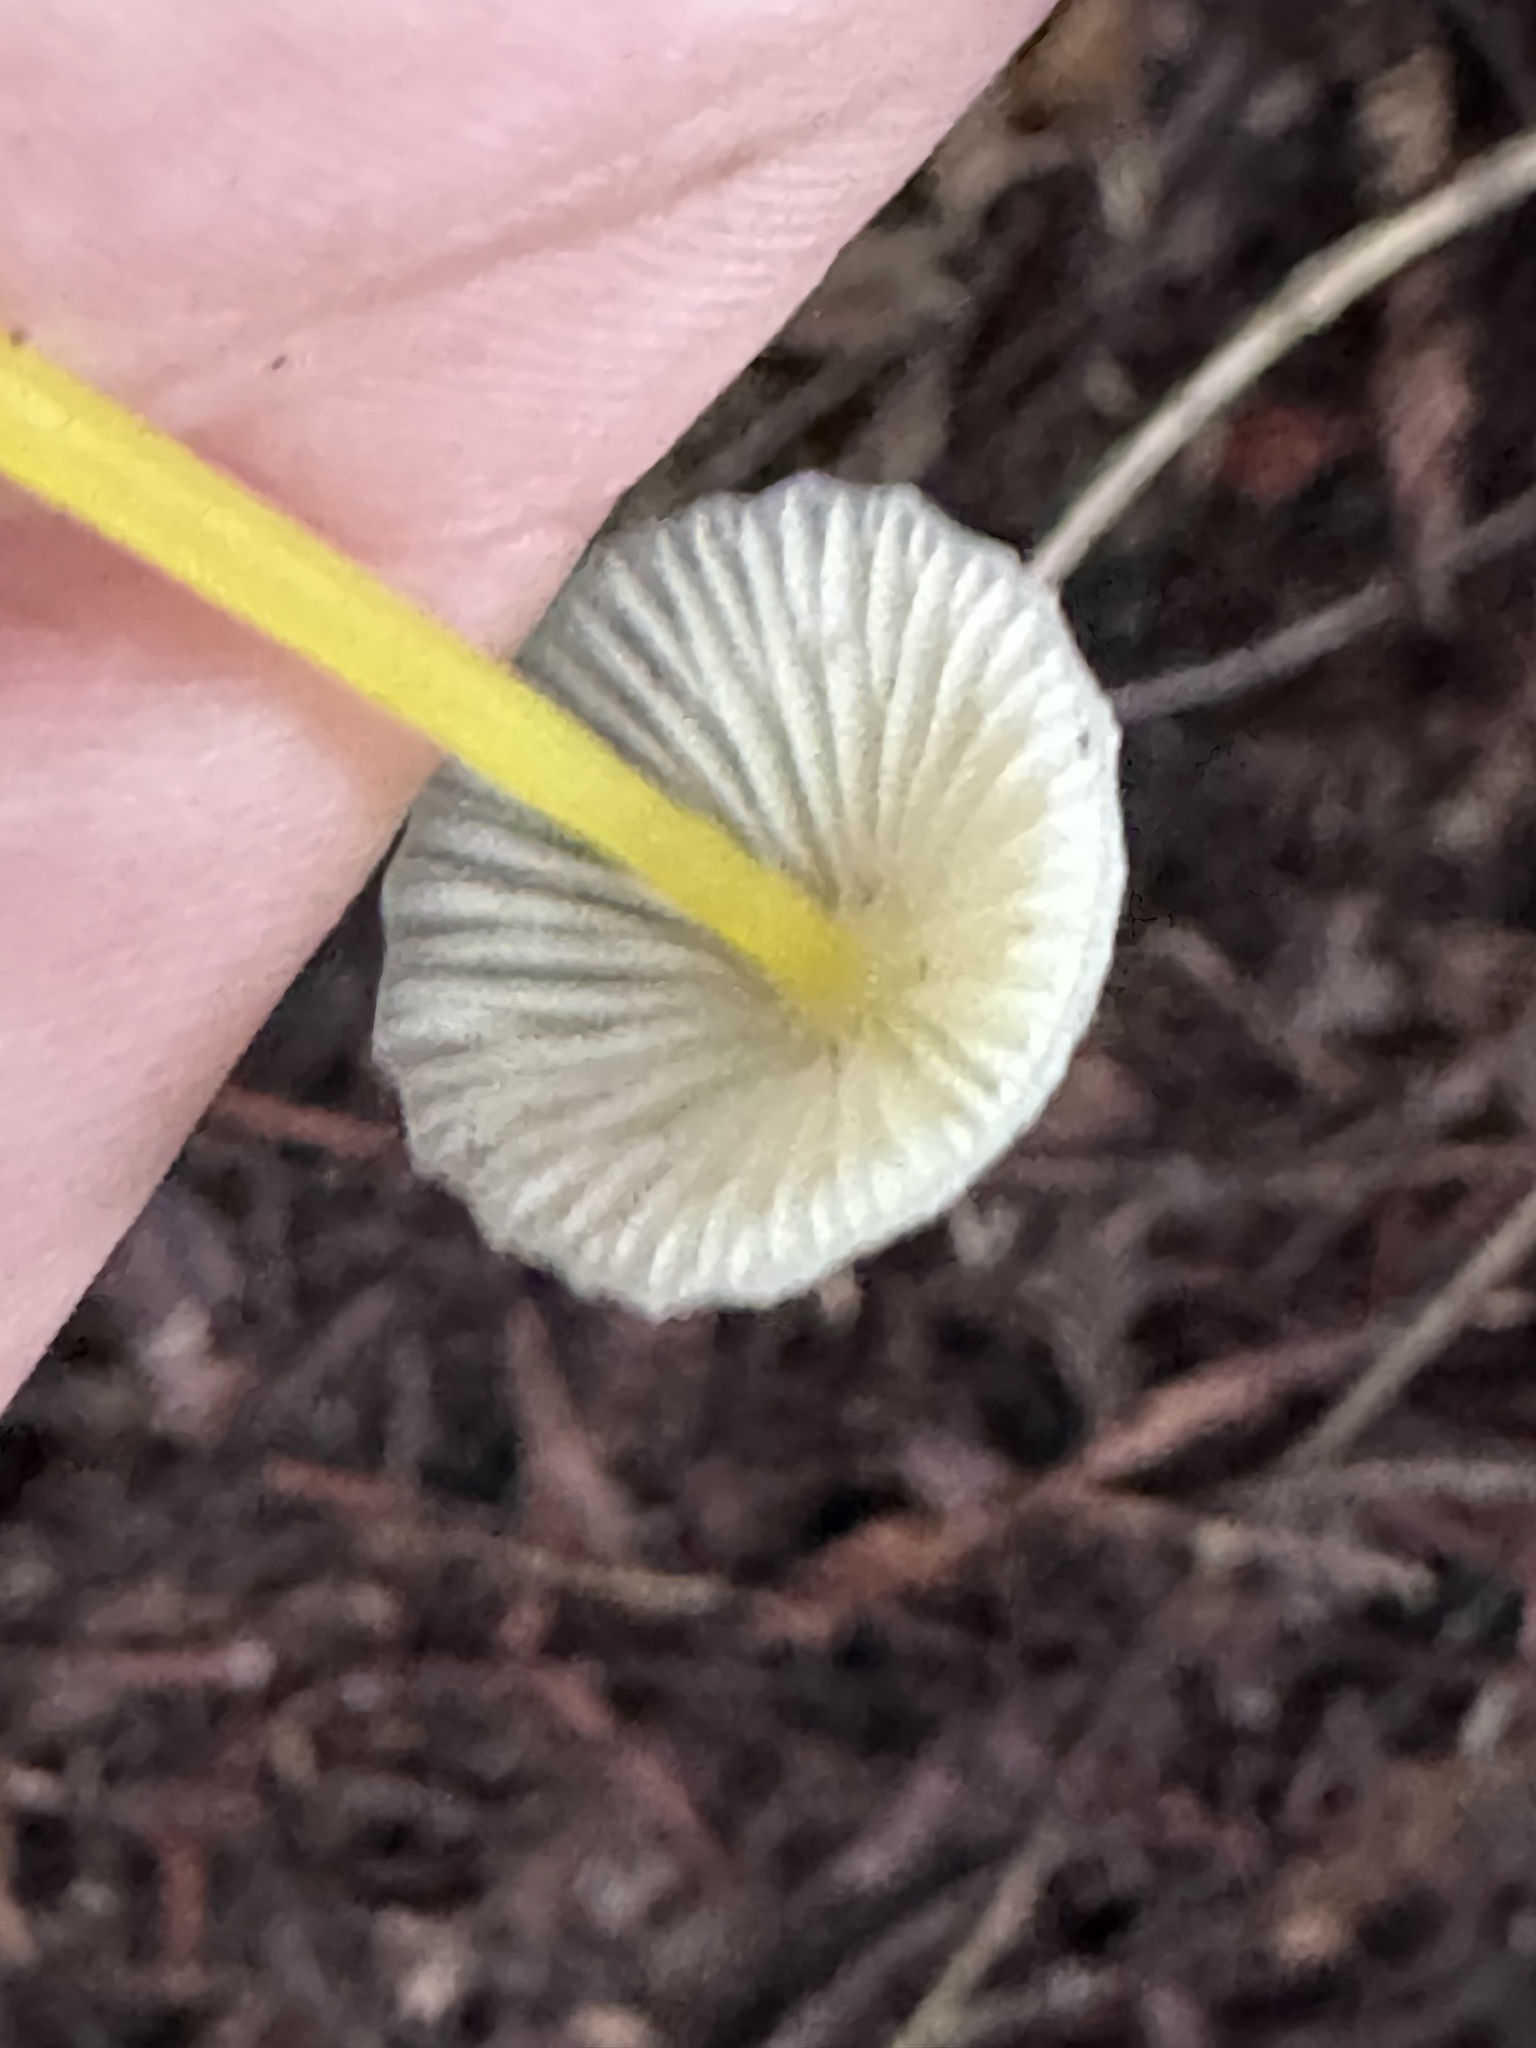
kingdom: Fungi
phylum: Basidiomycota
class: Agaricomycetes
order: Agaricales
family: Mycenaceae
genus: Mycena
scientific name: Mycena epipterygia
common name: Yellowleg bonnet
